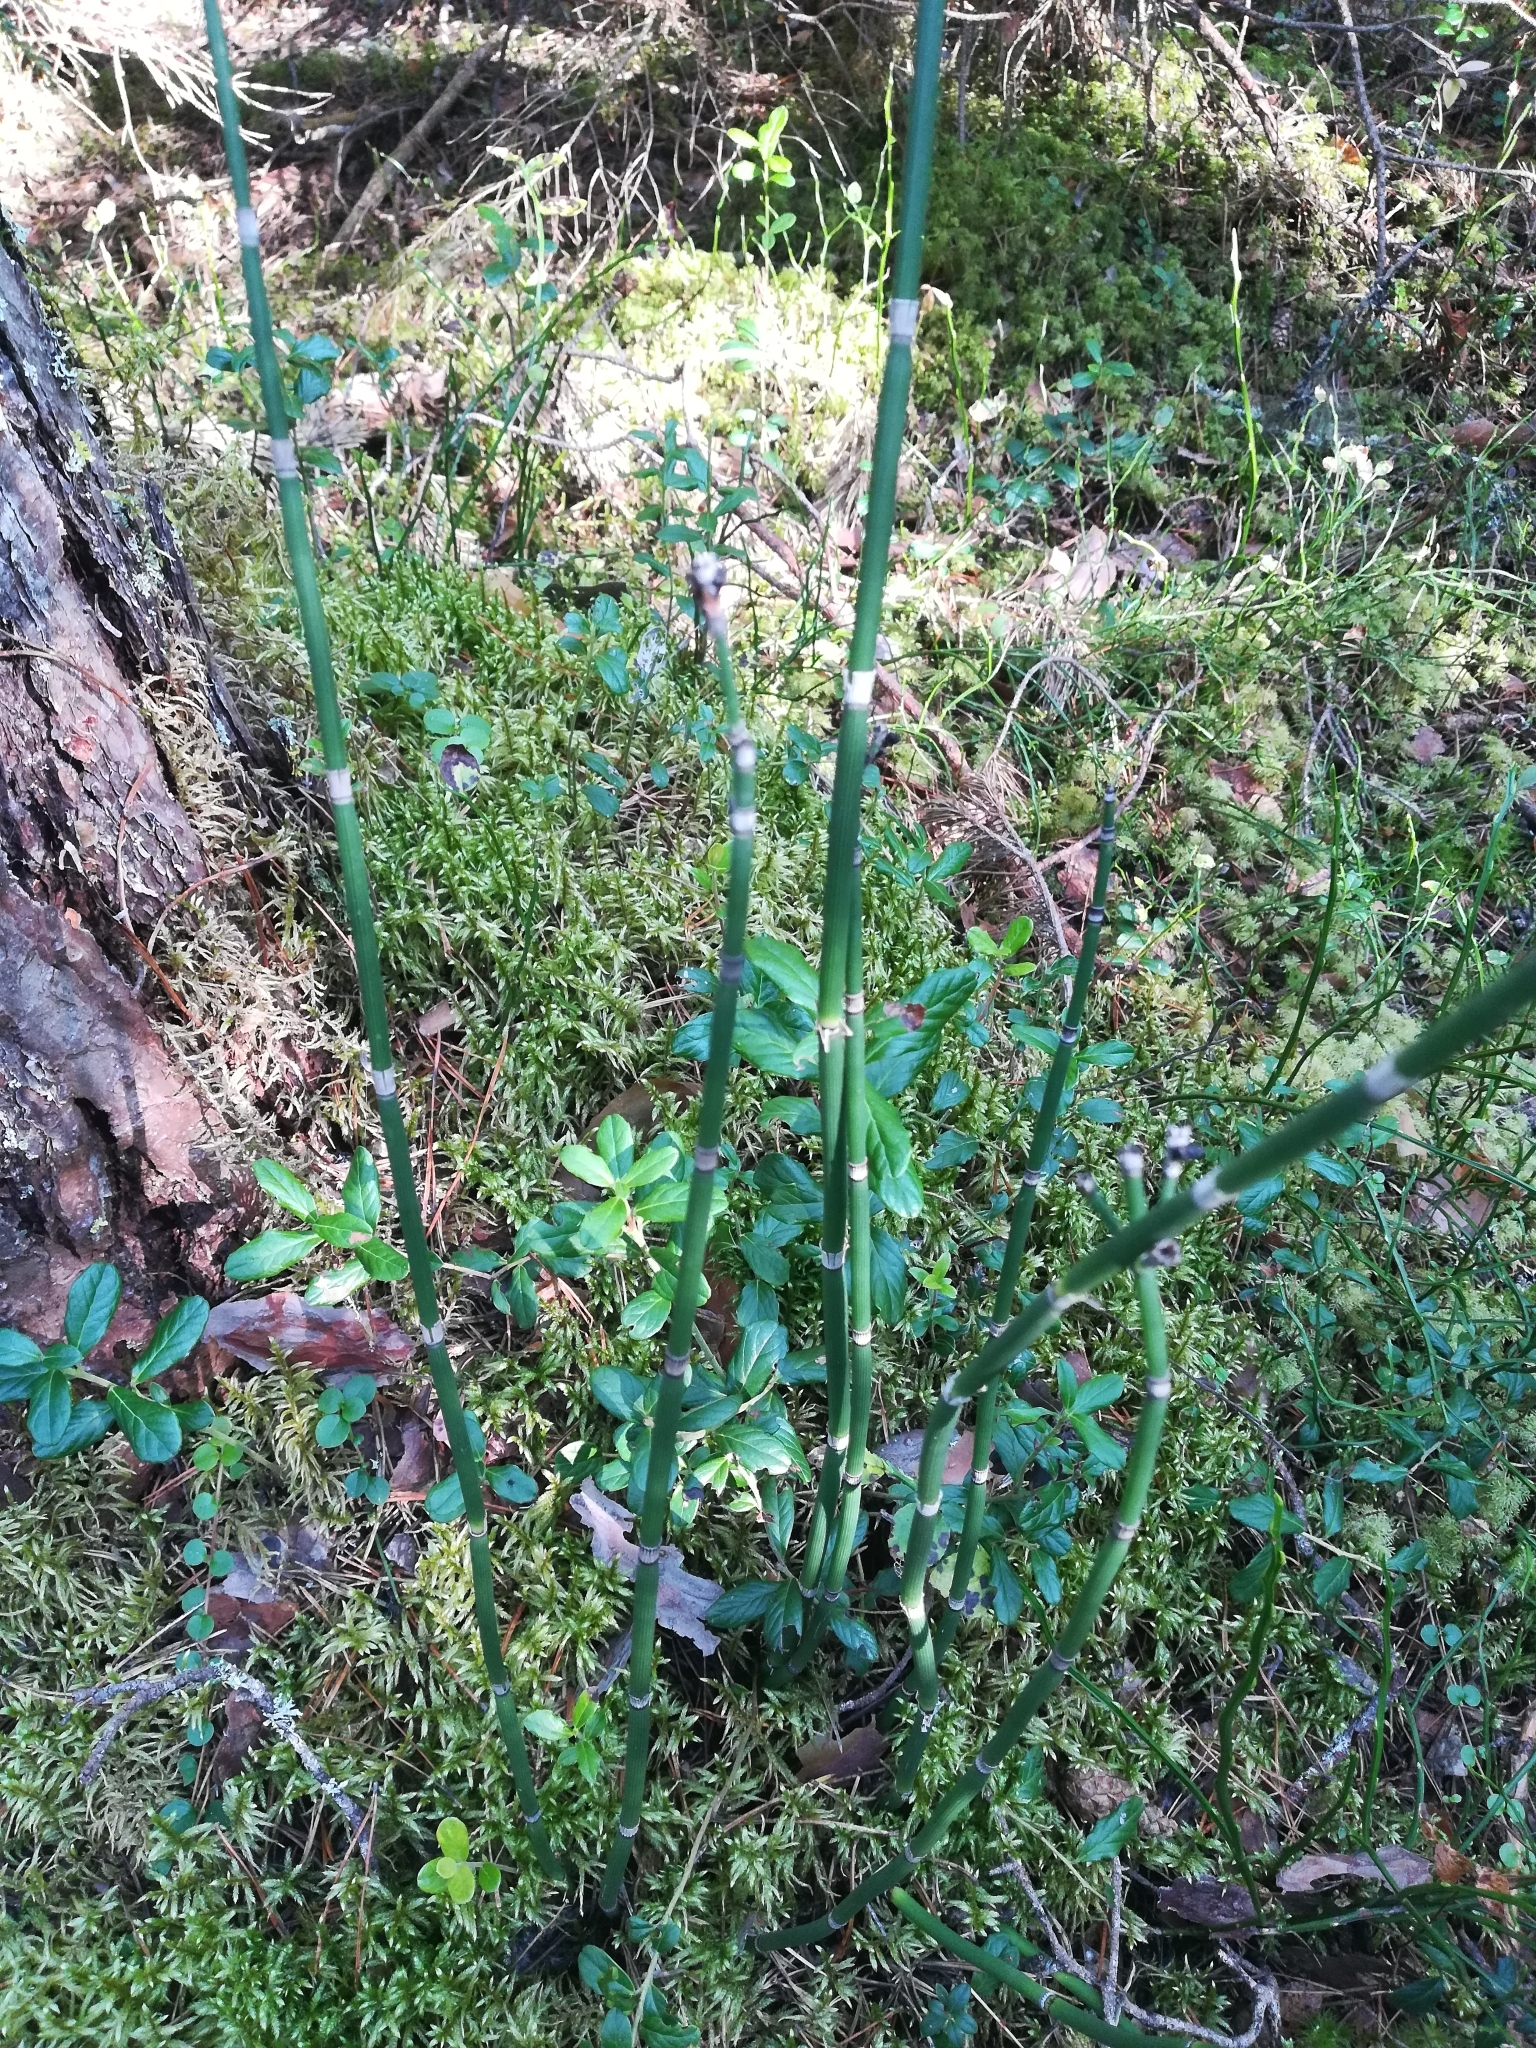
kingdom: Plantae
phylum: Tracheophyta
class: Polypodiopsida
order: Equisetales
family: Equisetaceae
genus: Equisetum
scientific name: Equisetum hyemale
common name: Rough horsetail
